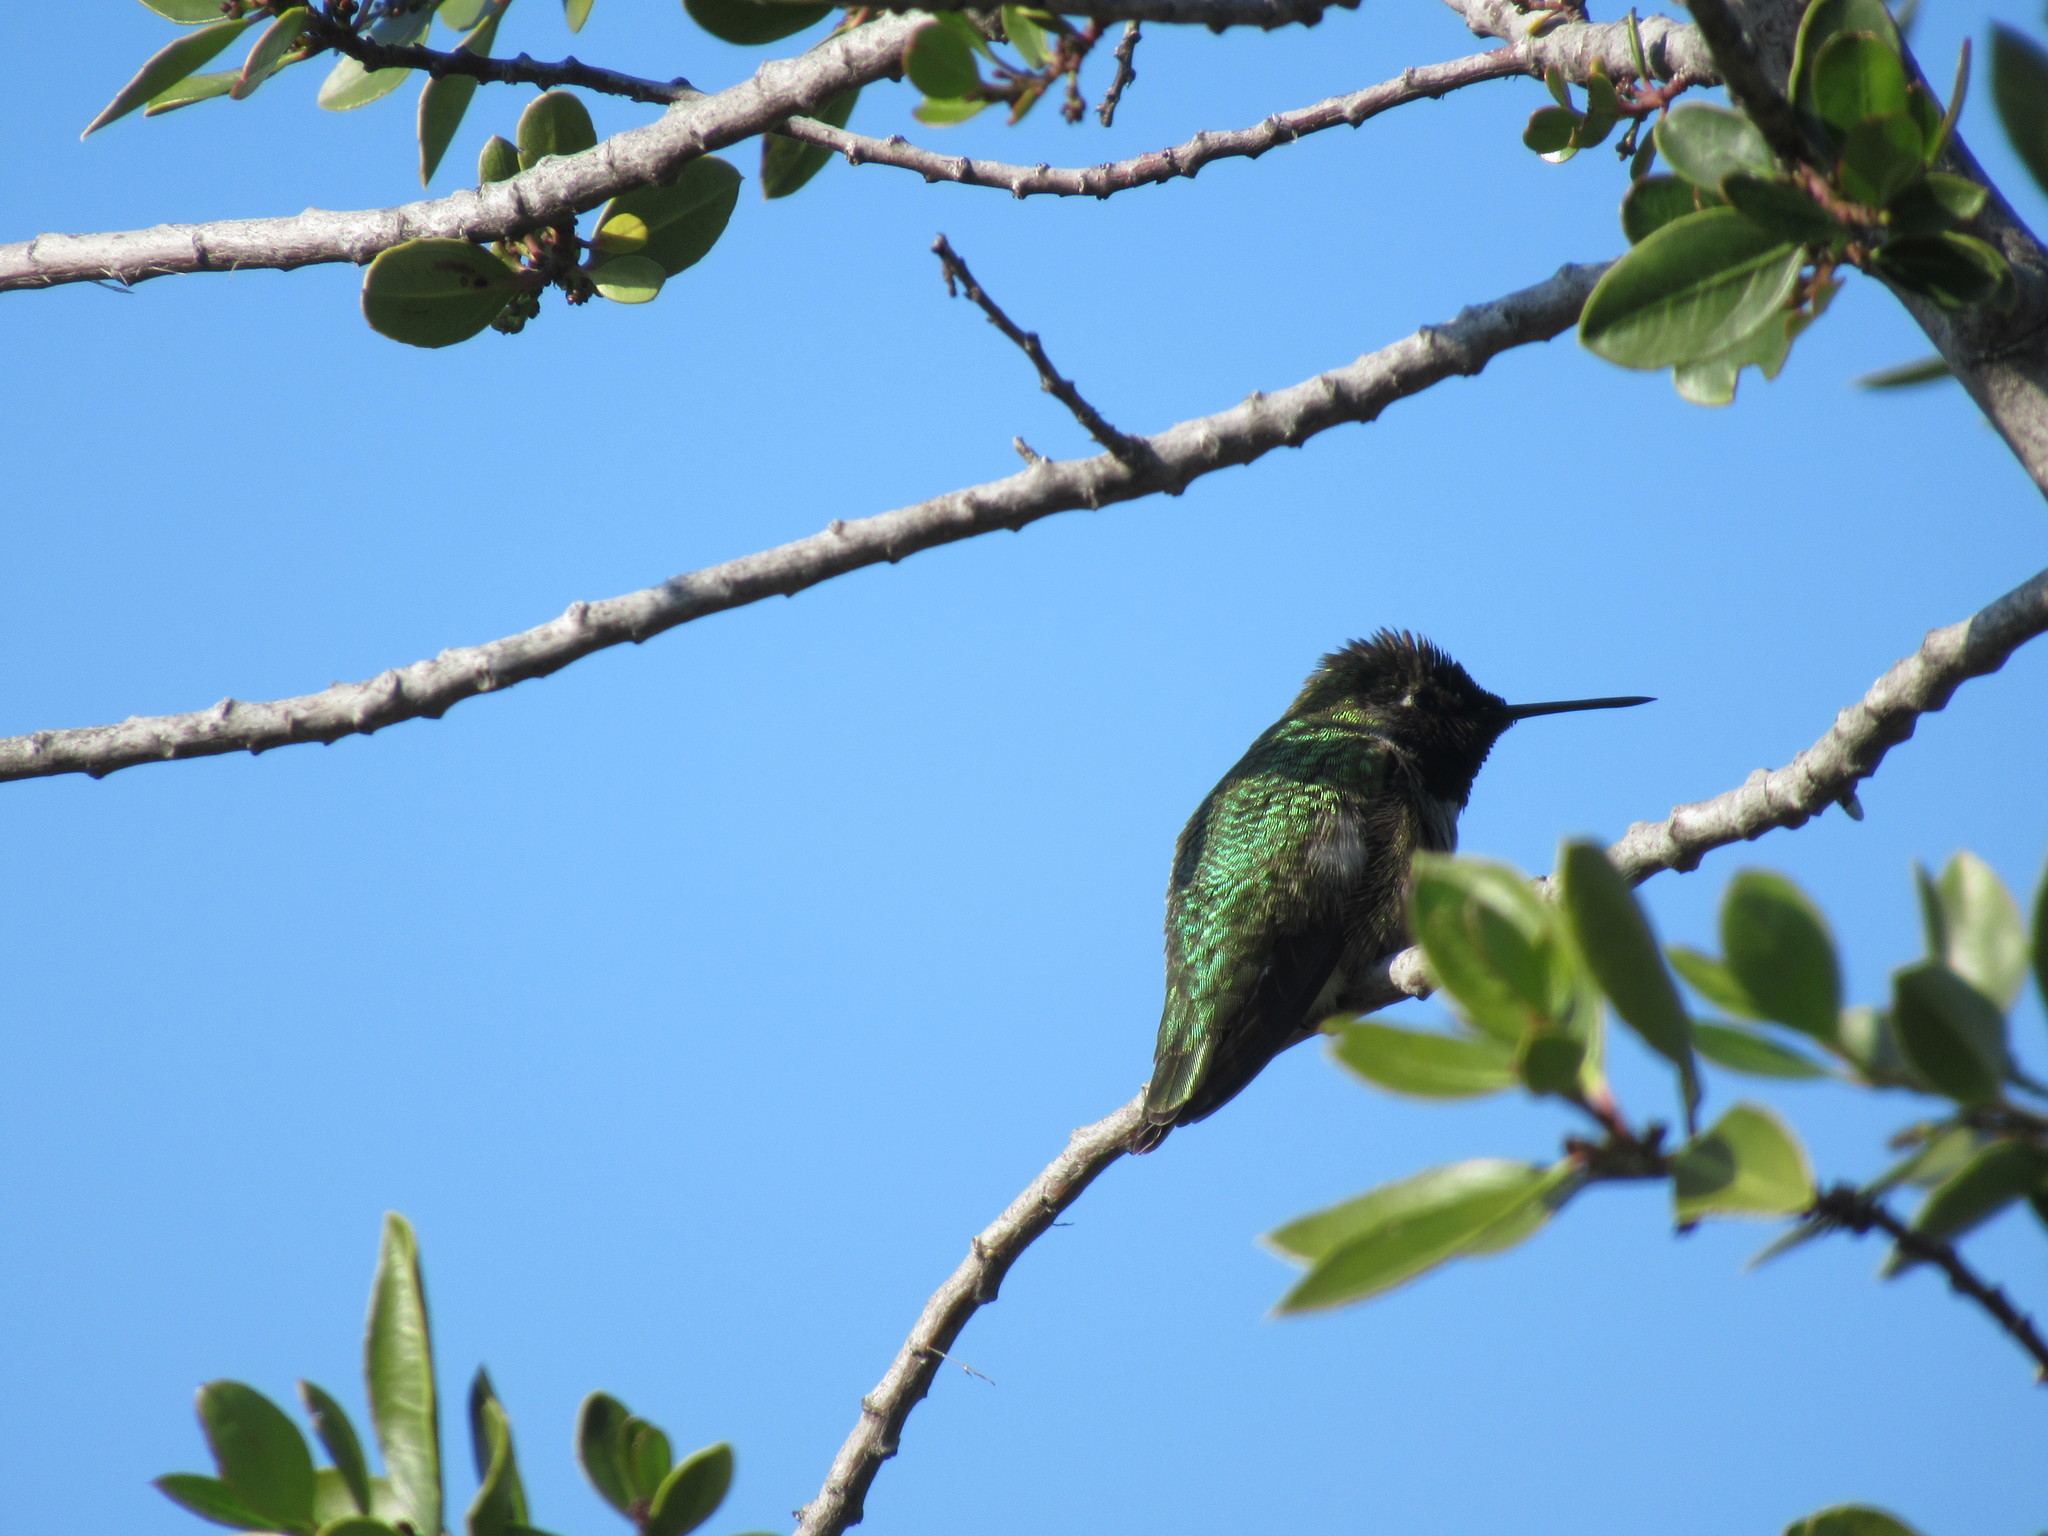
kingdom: Animalia
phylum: Chordata
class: Aves
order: Apodiformes
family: Trochilidae
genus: Calypte
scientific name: Calypte anna
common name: Anna's hummingbird
